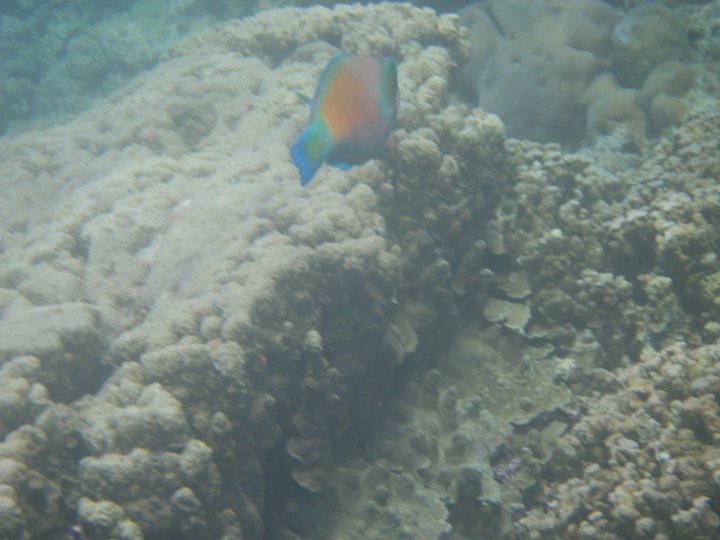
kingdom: Animalia
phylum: Chordata
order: Perciformes
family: Scaridae
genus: Chlorurus
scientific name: Chlorurus spilurus
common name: Bullethead parrotfish
